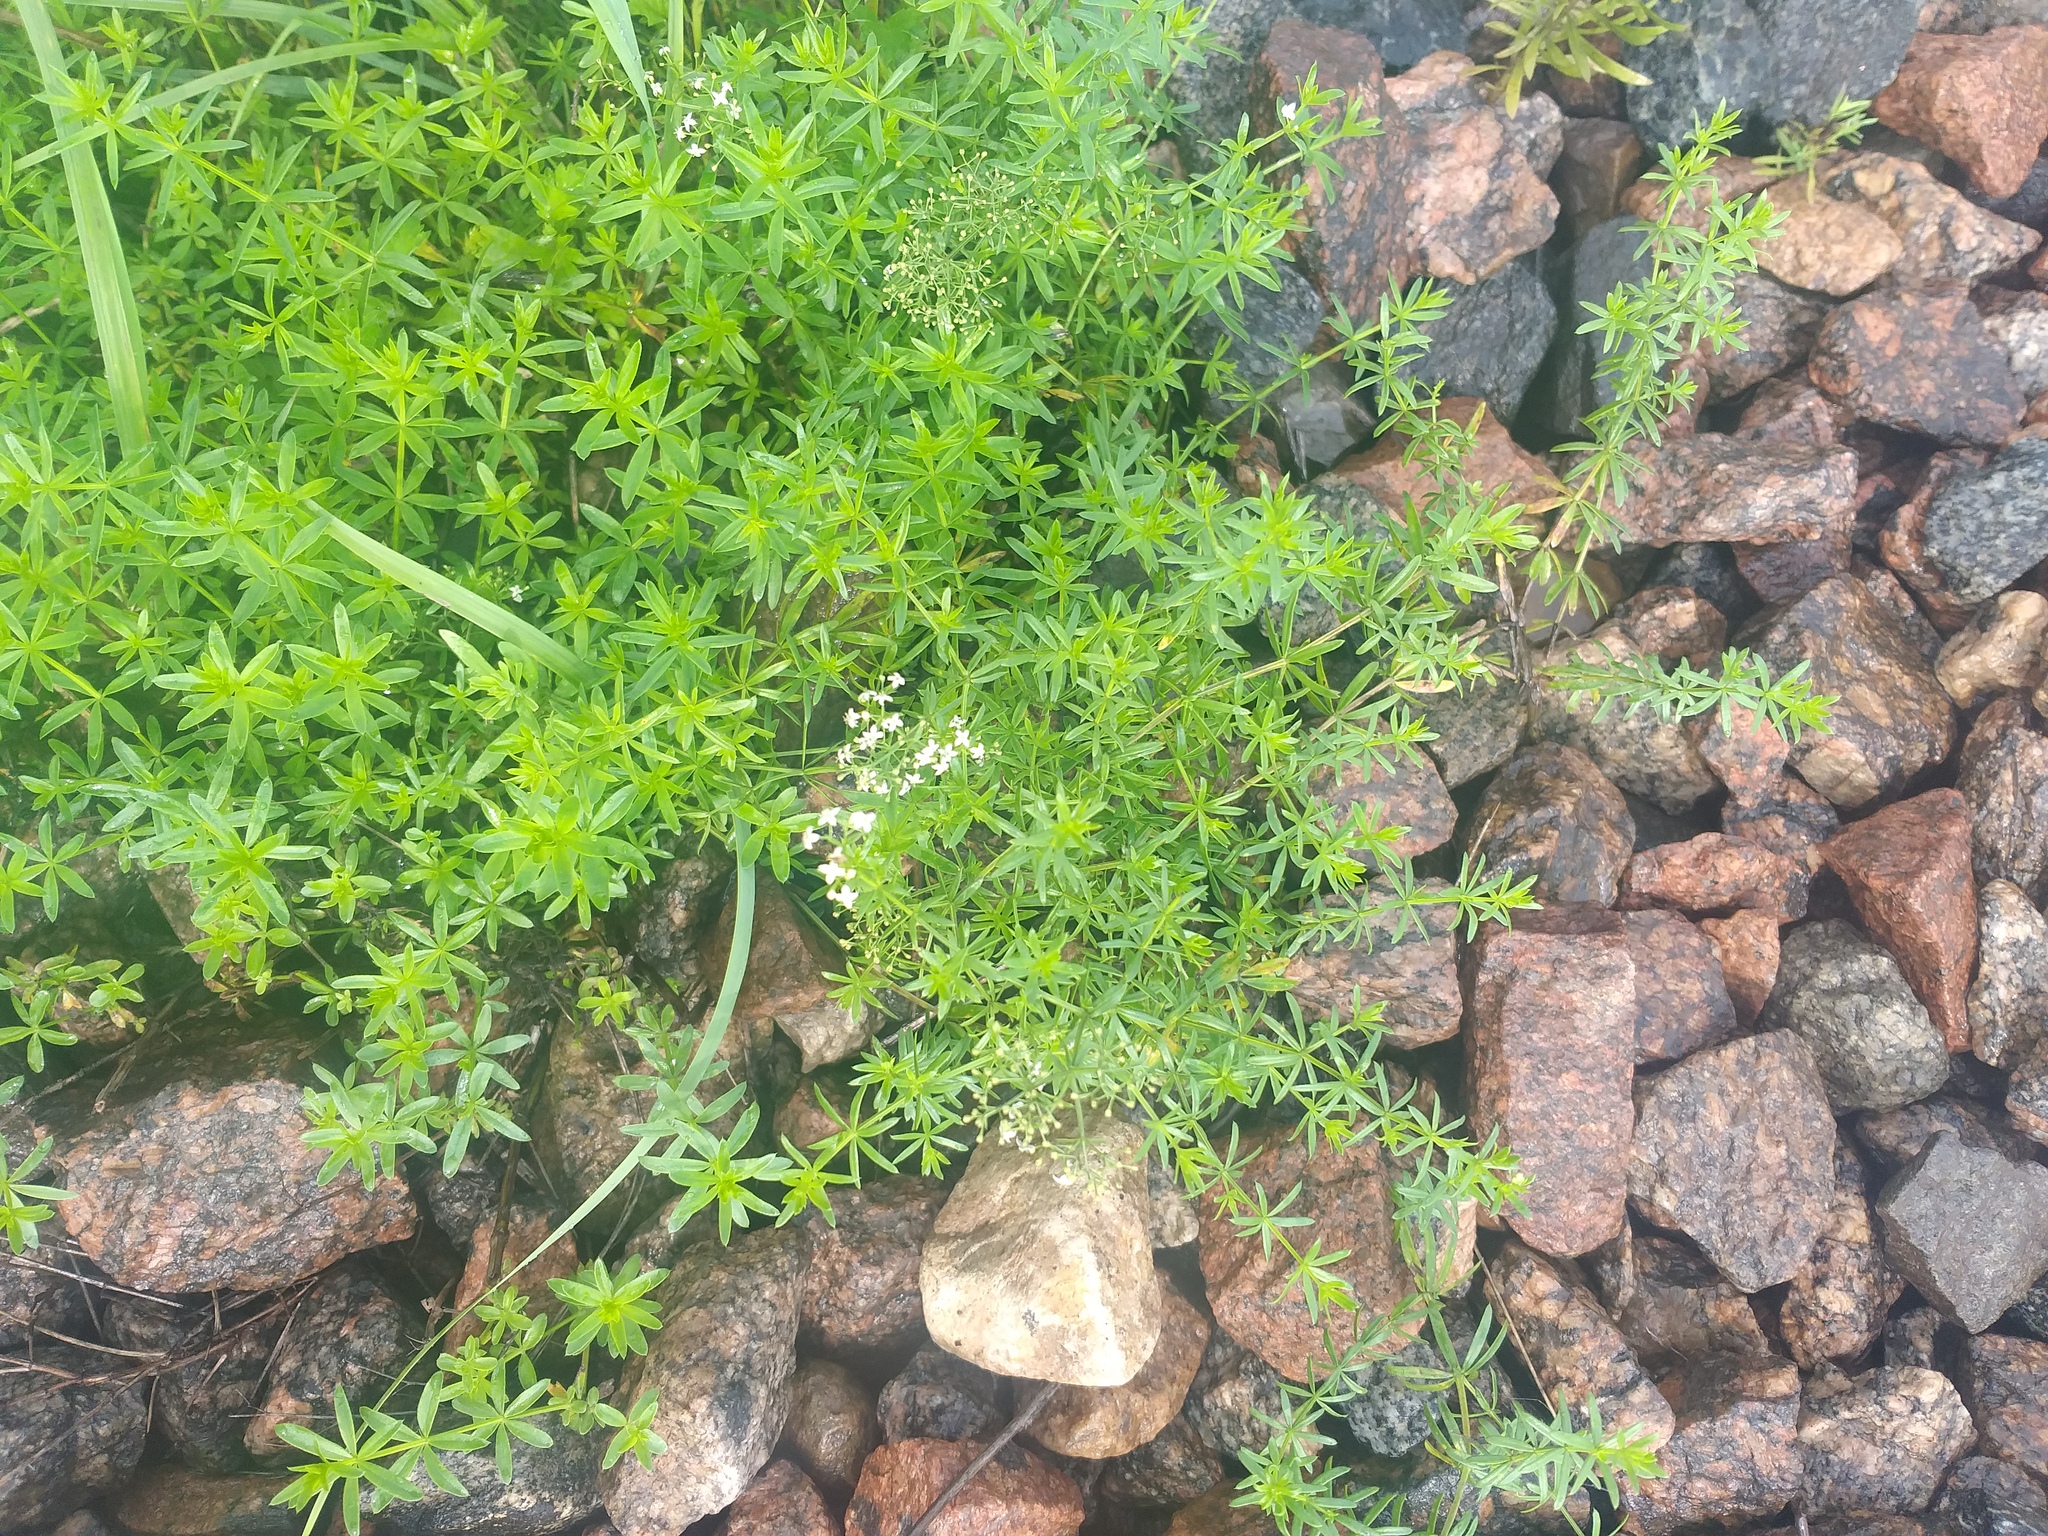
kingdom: Plantae
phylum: Tracheophyta
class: Magnoliopsida
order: Gentianales
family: Rubiaceae
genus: Galium
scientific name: Galium mollugo
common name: Hedge bedstraw
